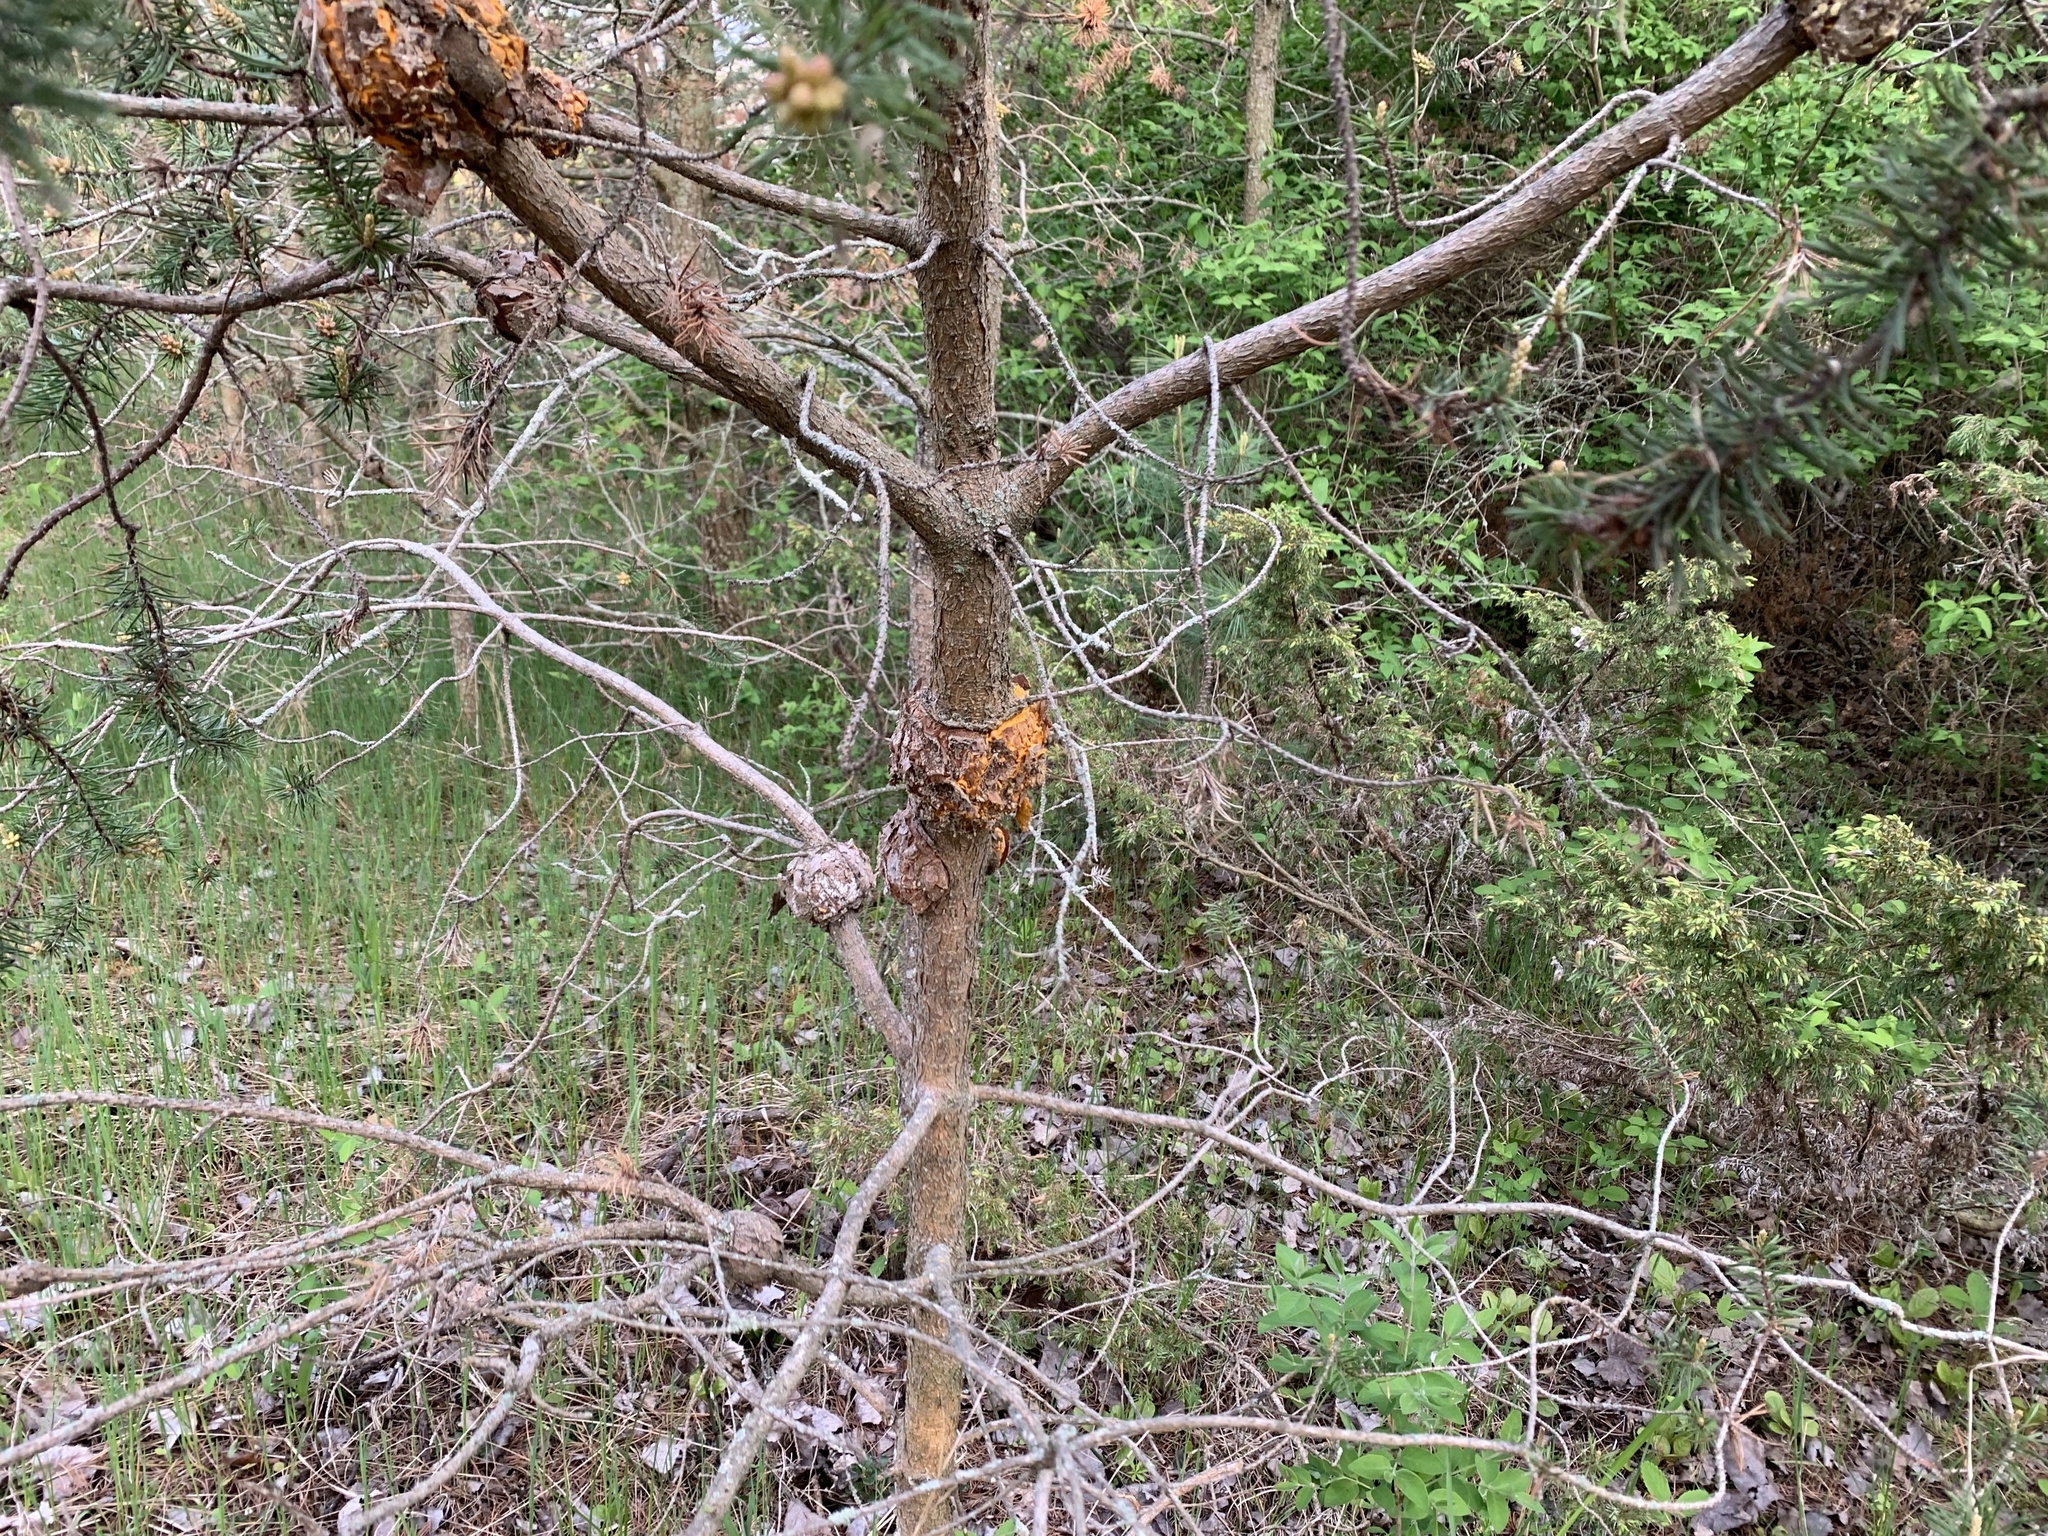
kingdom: Fungi
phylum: Basidiomycota
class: Pucciniomycetes
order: Pucciniales
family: Cronartiaceae
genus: Cronartium
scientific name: Cronartium quercuum
